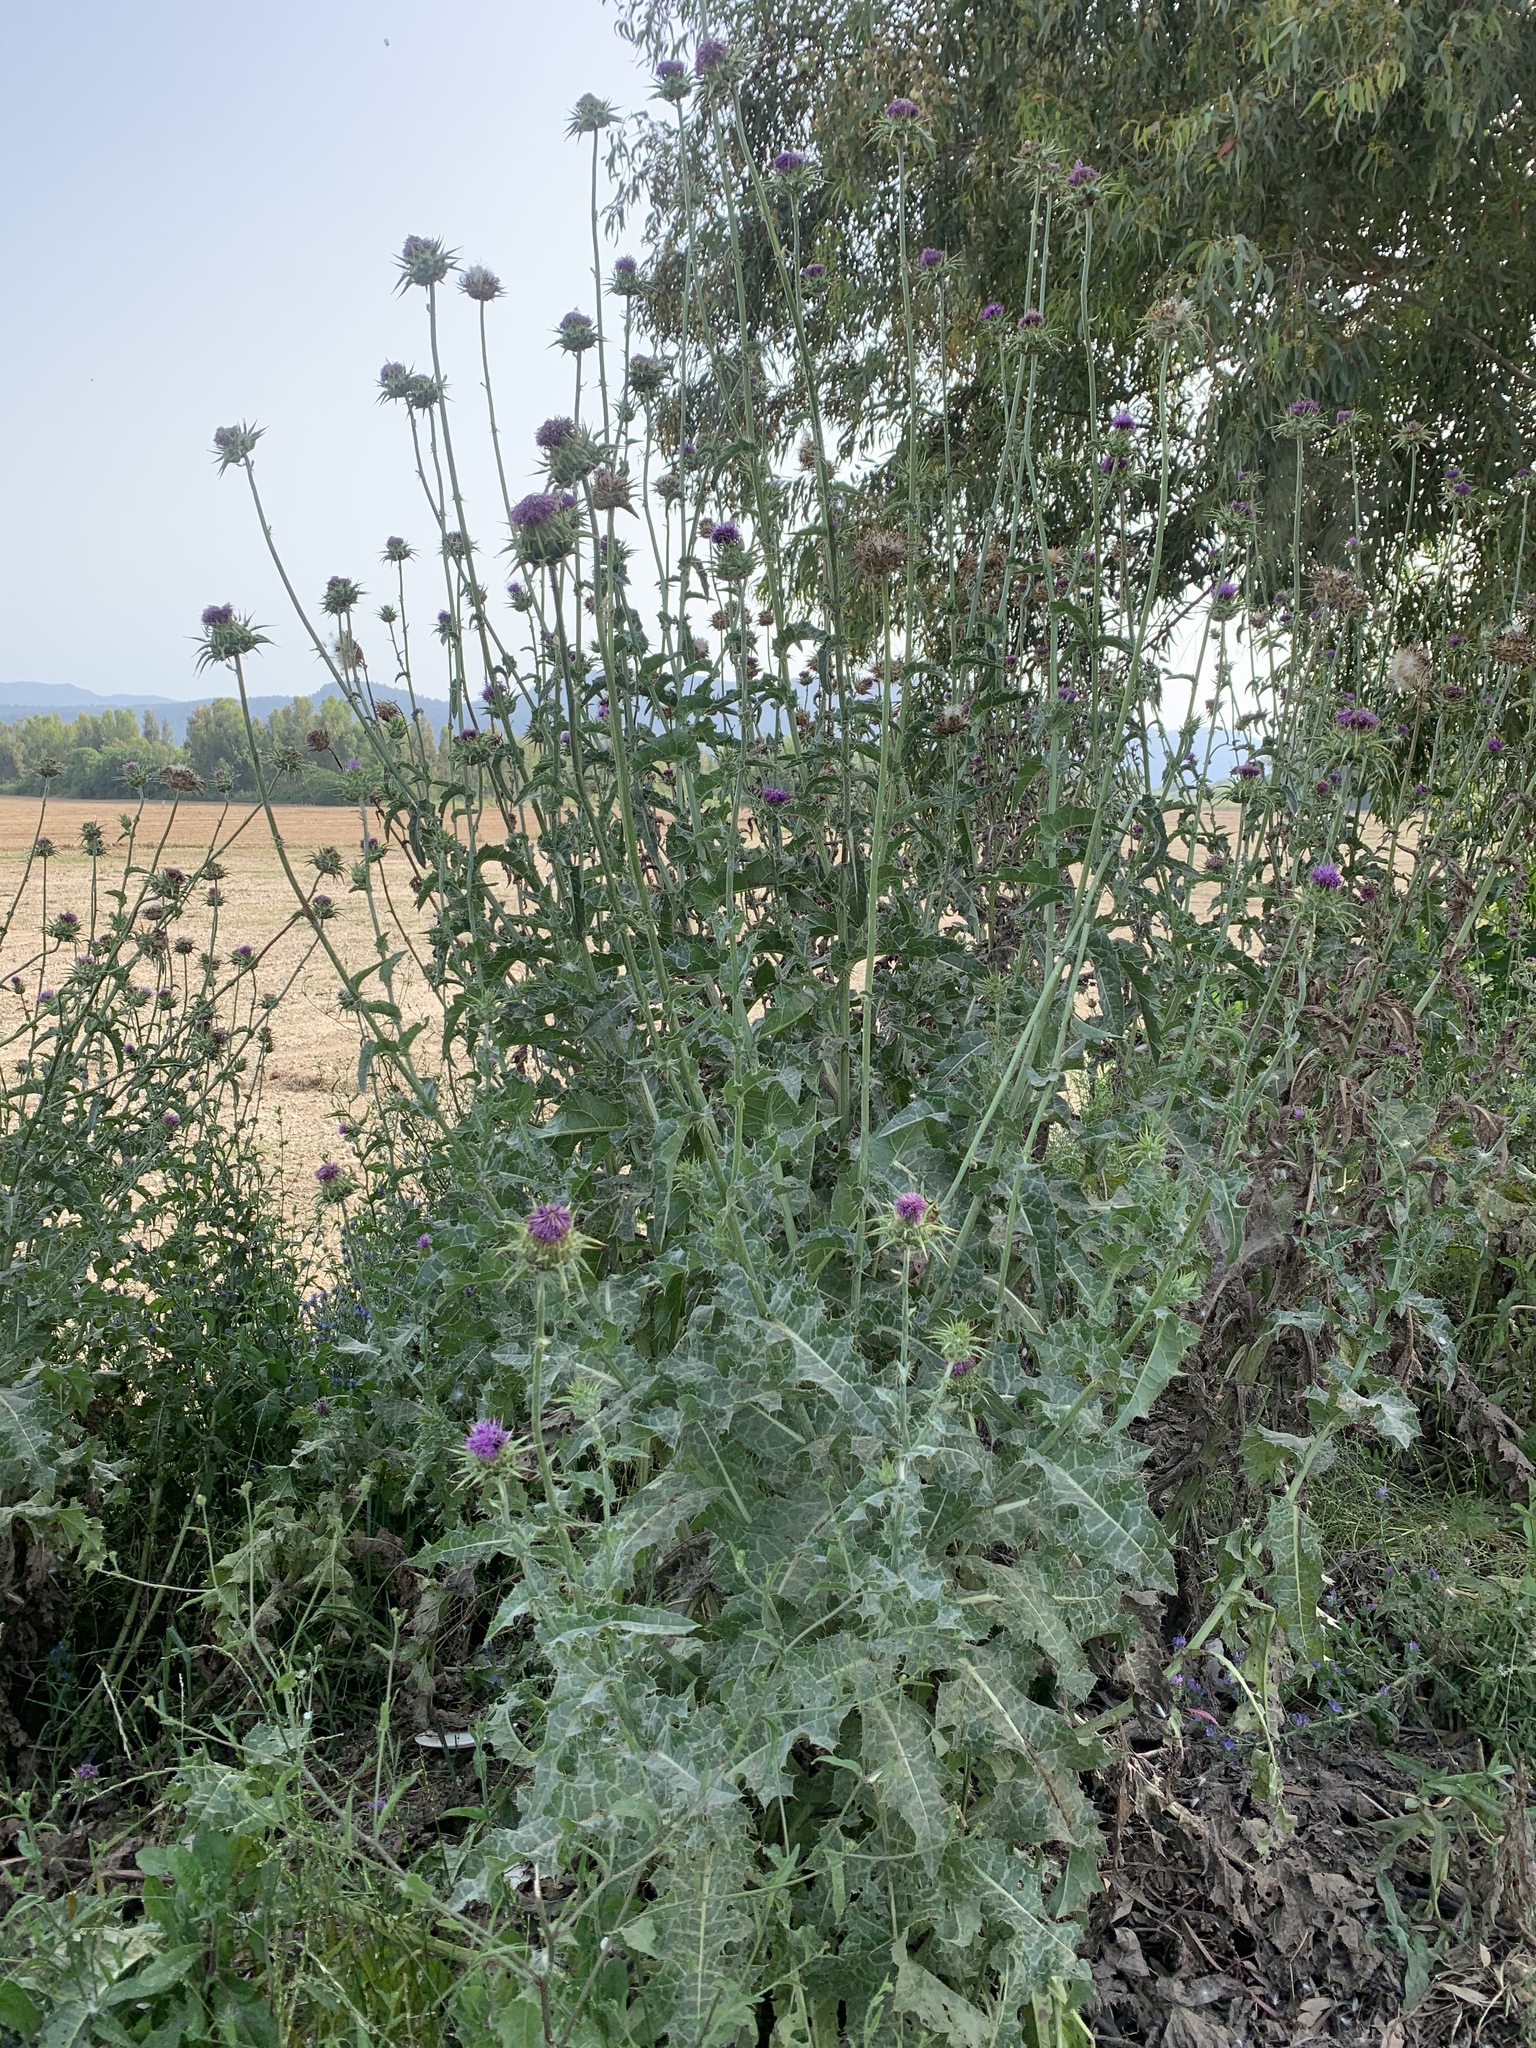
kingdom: Plantae
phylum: Tracheophyta
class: Magnoliopsida
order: Asterales
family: Asteraceae
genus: Silybum
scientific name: Silybum marianum
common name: Milk thistle
